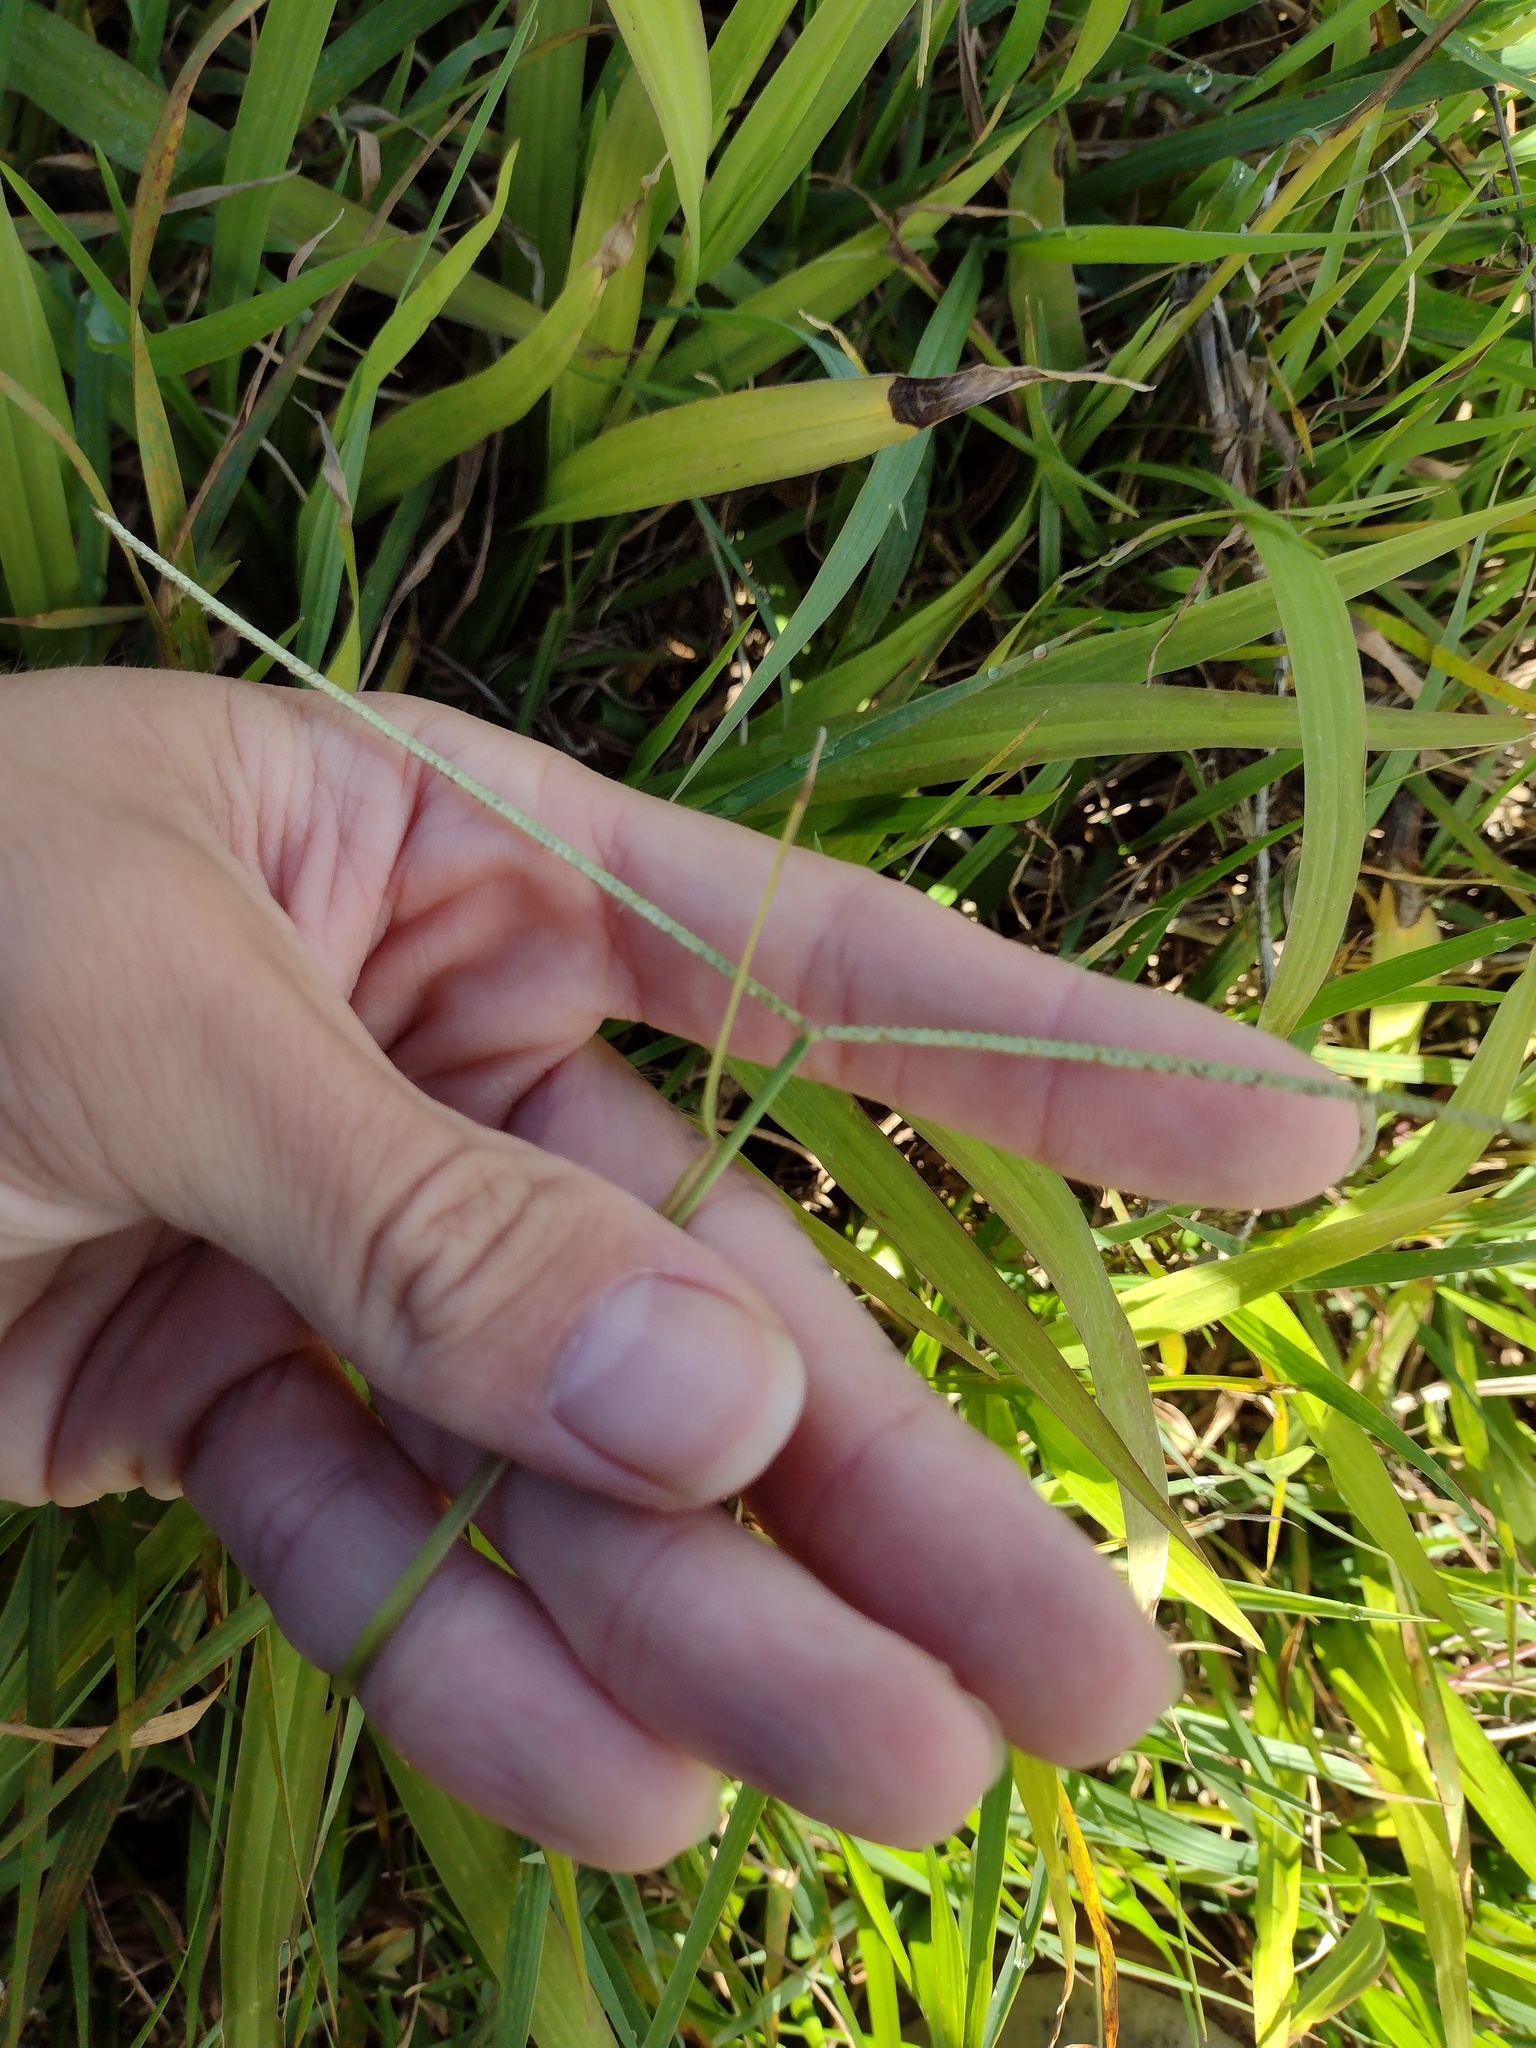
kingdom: Plantae
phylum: Tracheophyta
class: Liliopsida
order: Poales
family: Poaceae
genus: Paspalum
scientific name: Paspalum conjugatum
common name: Hilograss
